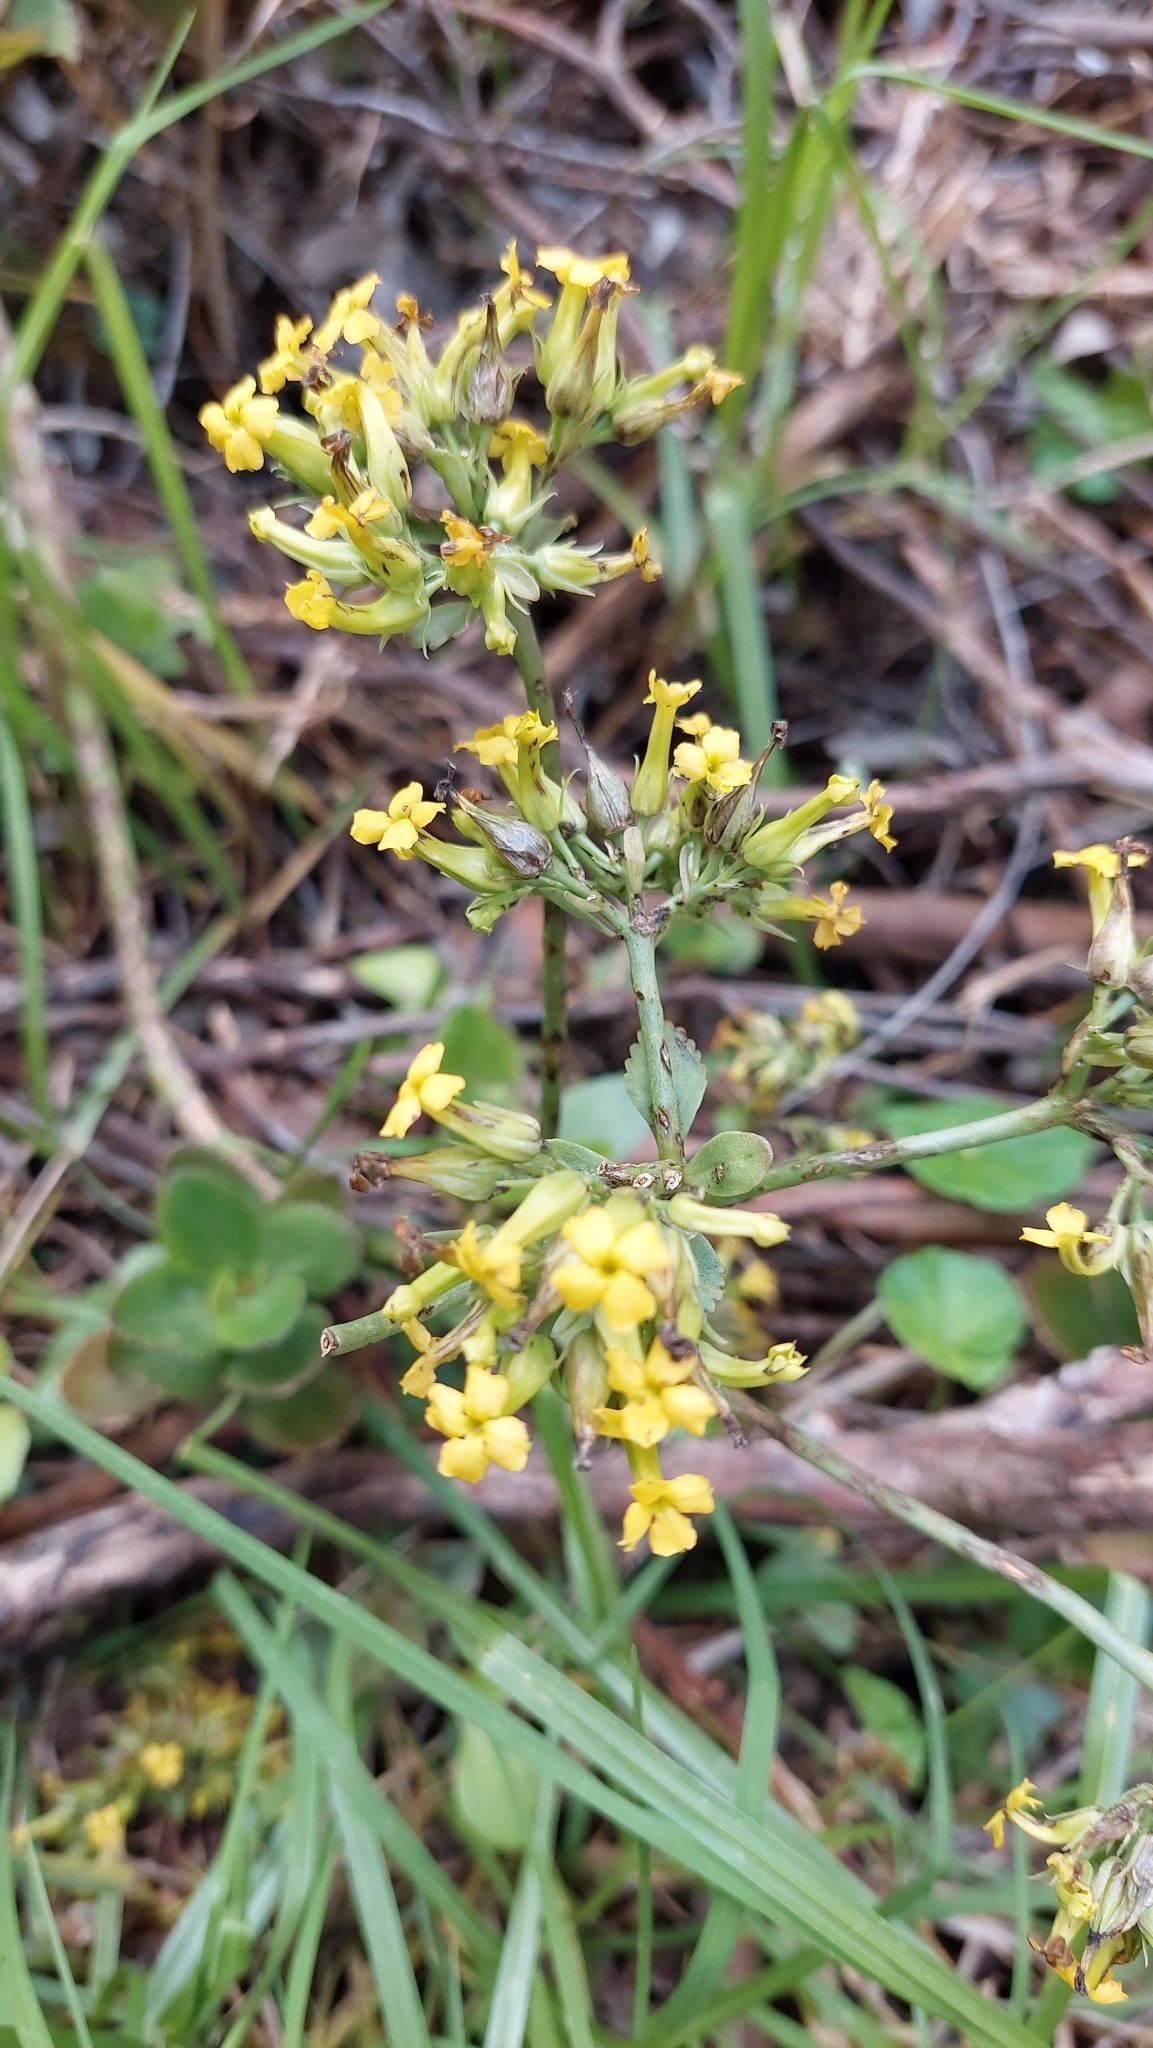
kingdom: Plantae
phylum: Tracheophyta
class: Magnoliopsida
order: Saxifragales
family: Crassulaceae
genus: Kalanchoe
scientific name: Kalanchoe densiflora
